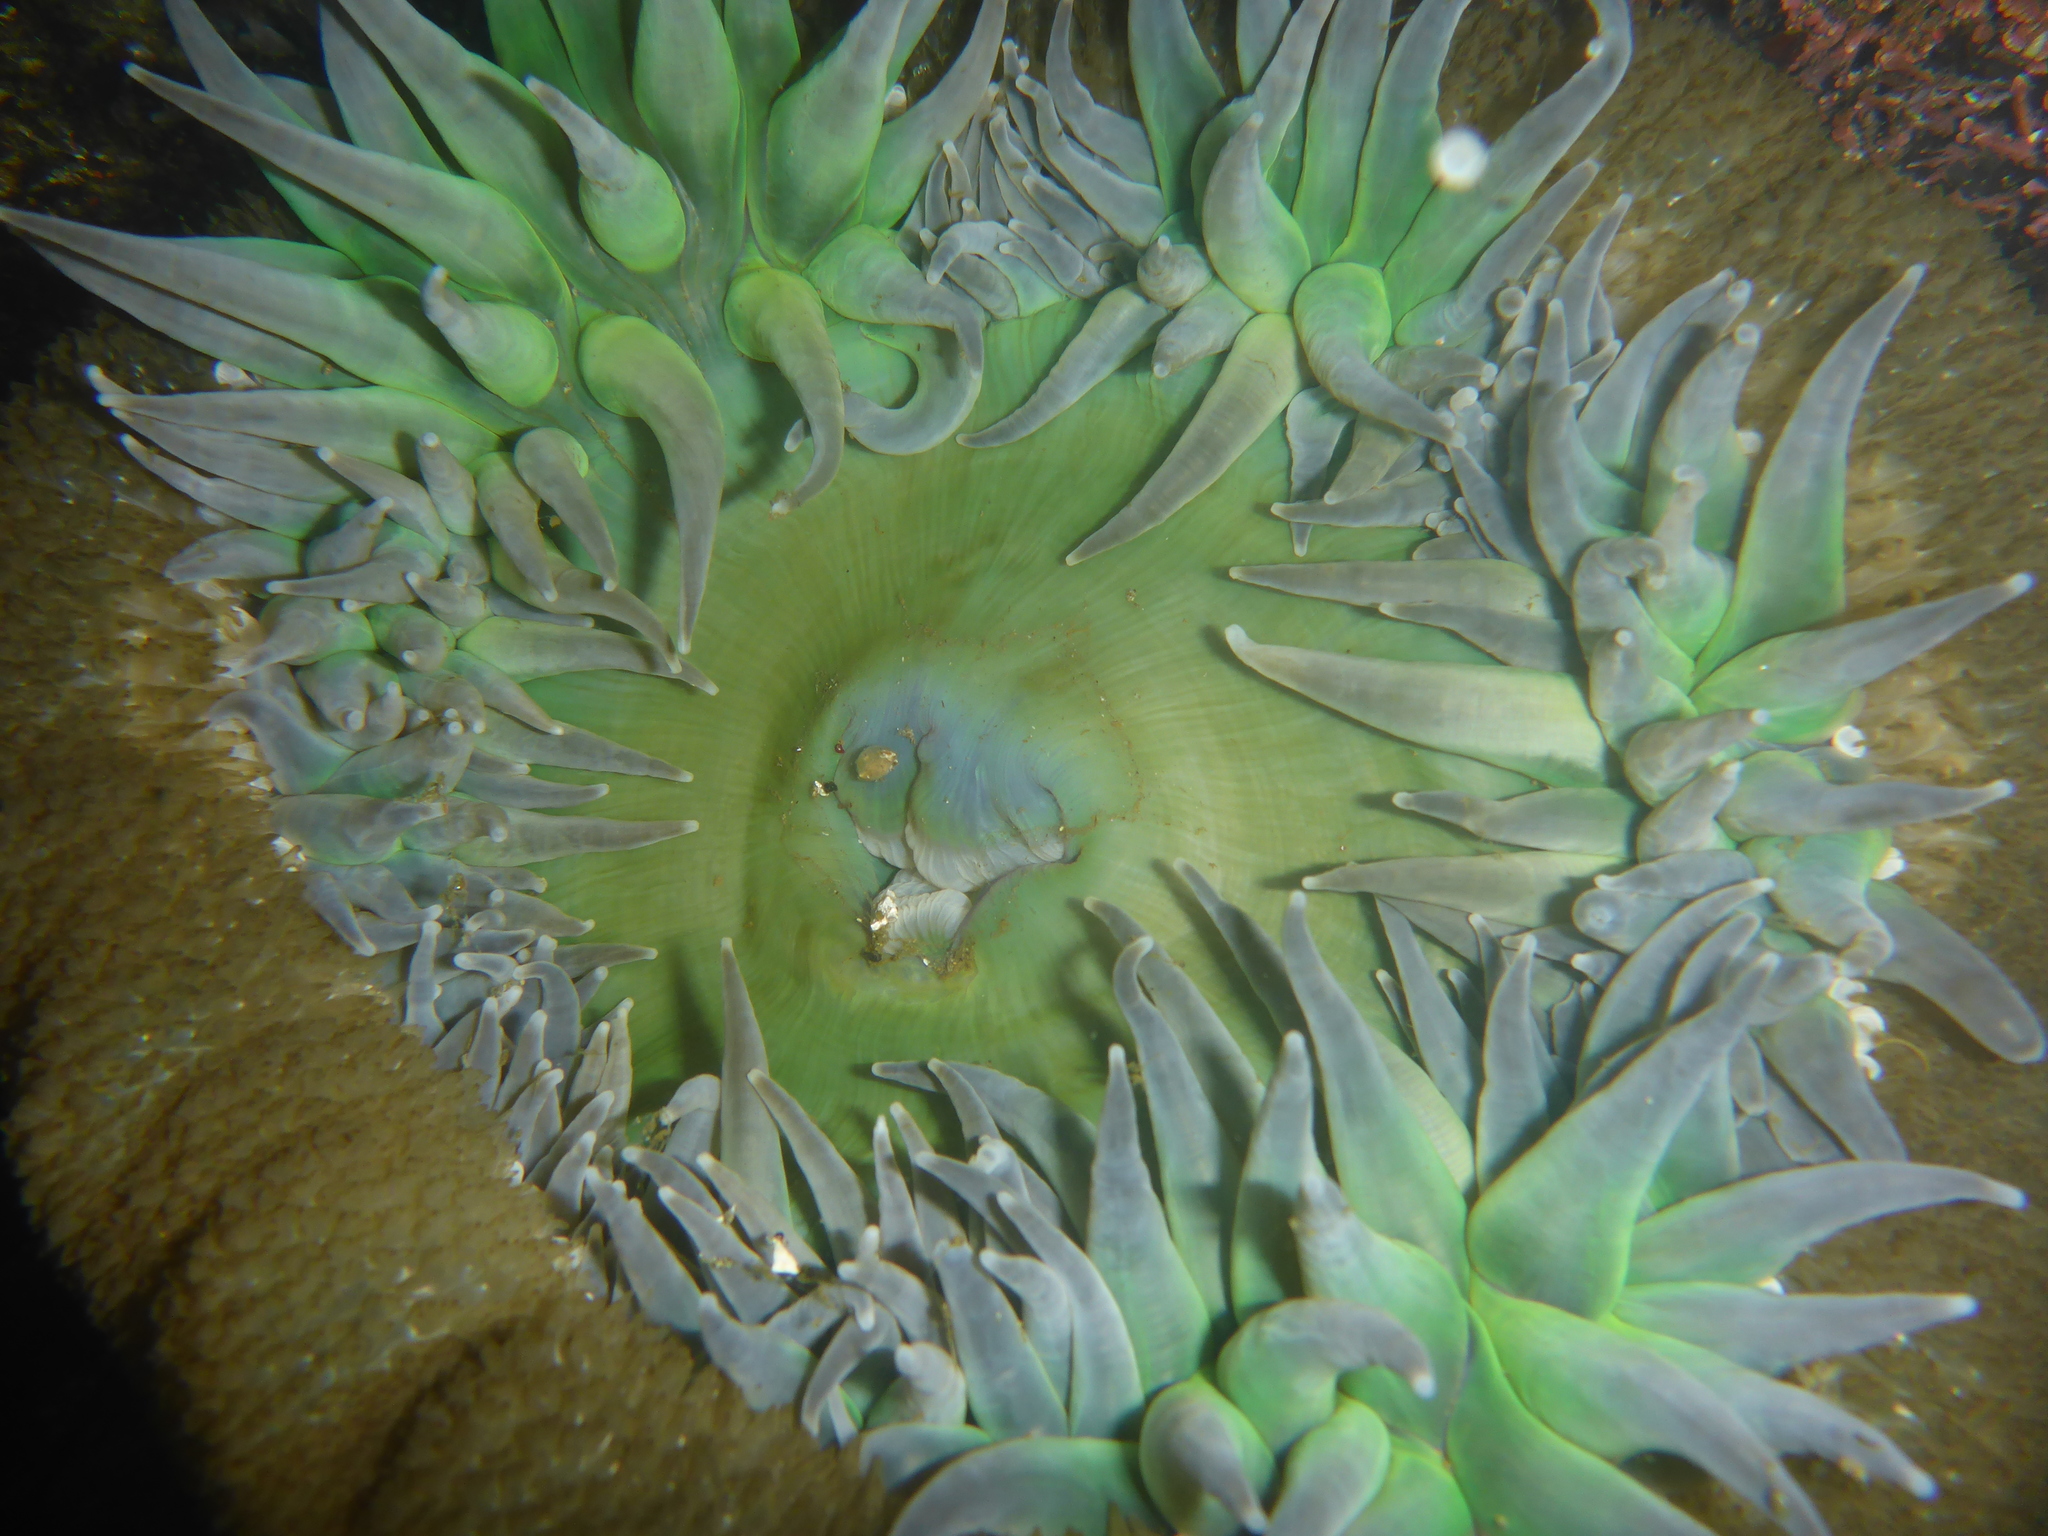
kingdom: Animalia
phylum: Cnidaria
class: Anthozoa
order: Actiniaria
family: Actiniidae
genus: Anthopleura
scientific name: Anthopleura xanthogrammica
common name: Giant green anemone
